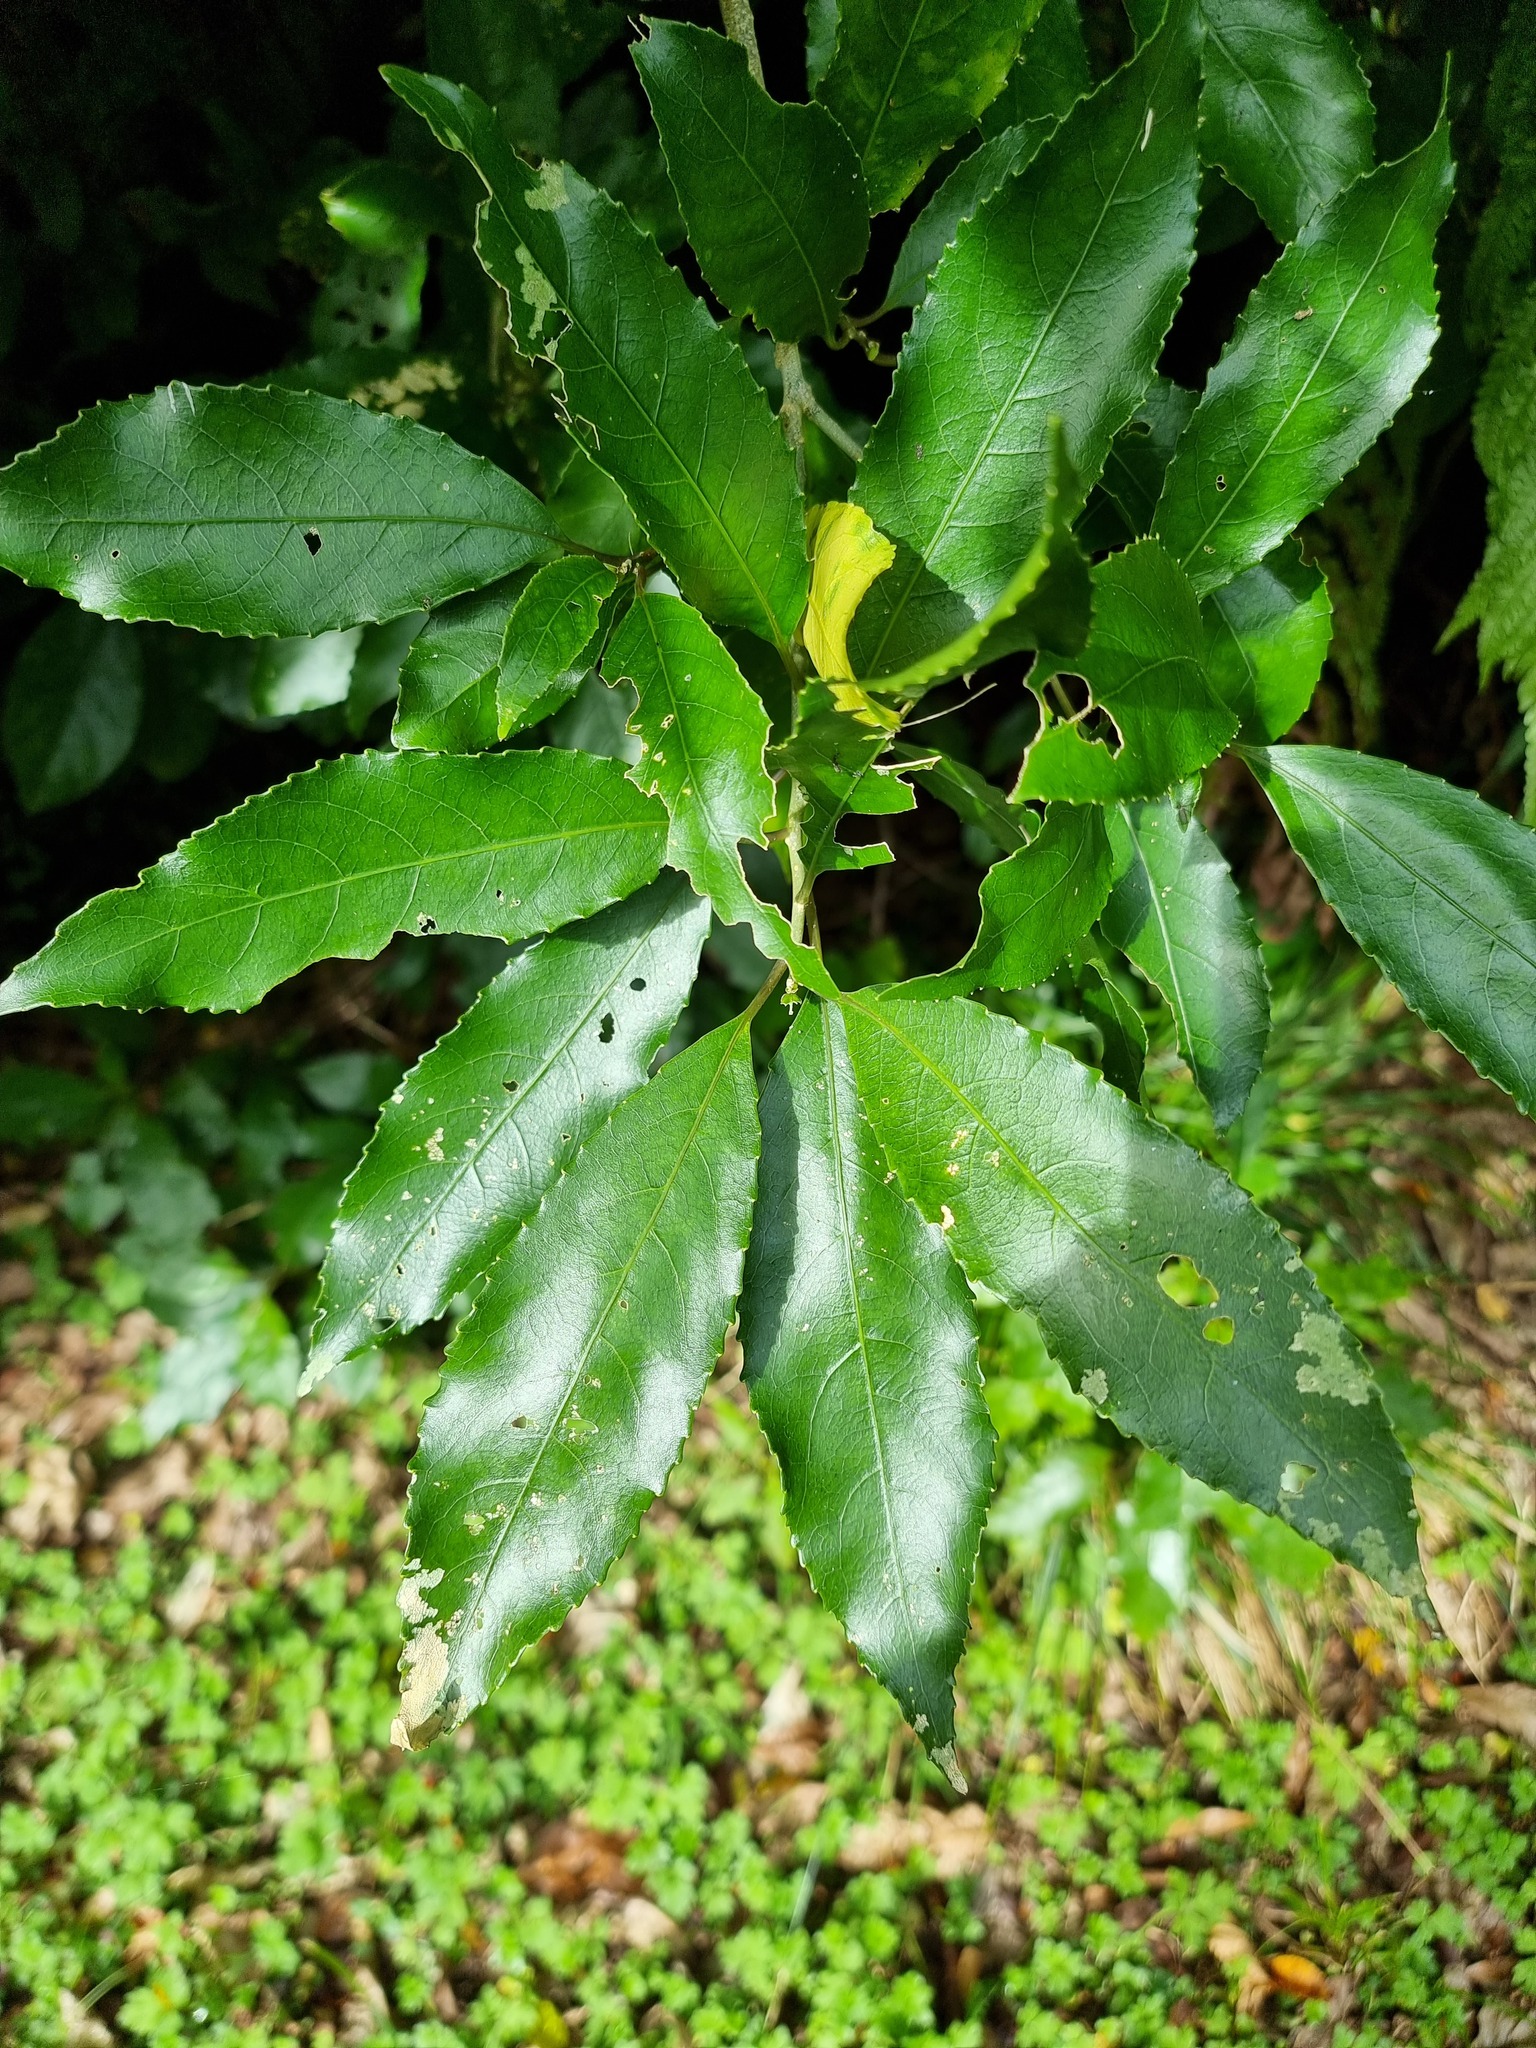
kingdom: Plantae
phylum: Tracheophyta
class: Magnoliopsida
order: Malpighiales
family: Violaceae
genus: Melicytus
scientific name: Melicytus ramiflorus
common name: Mahoe
